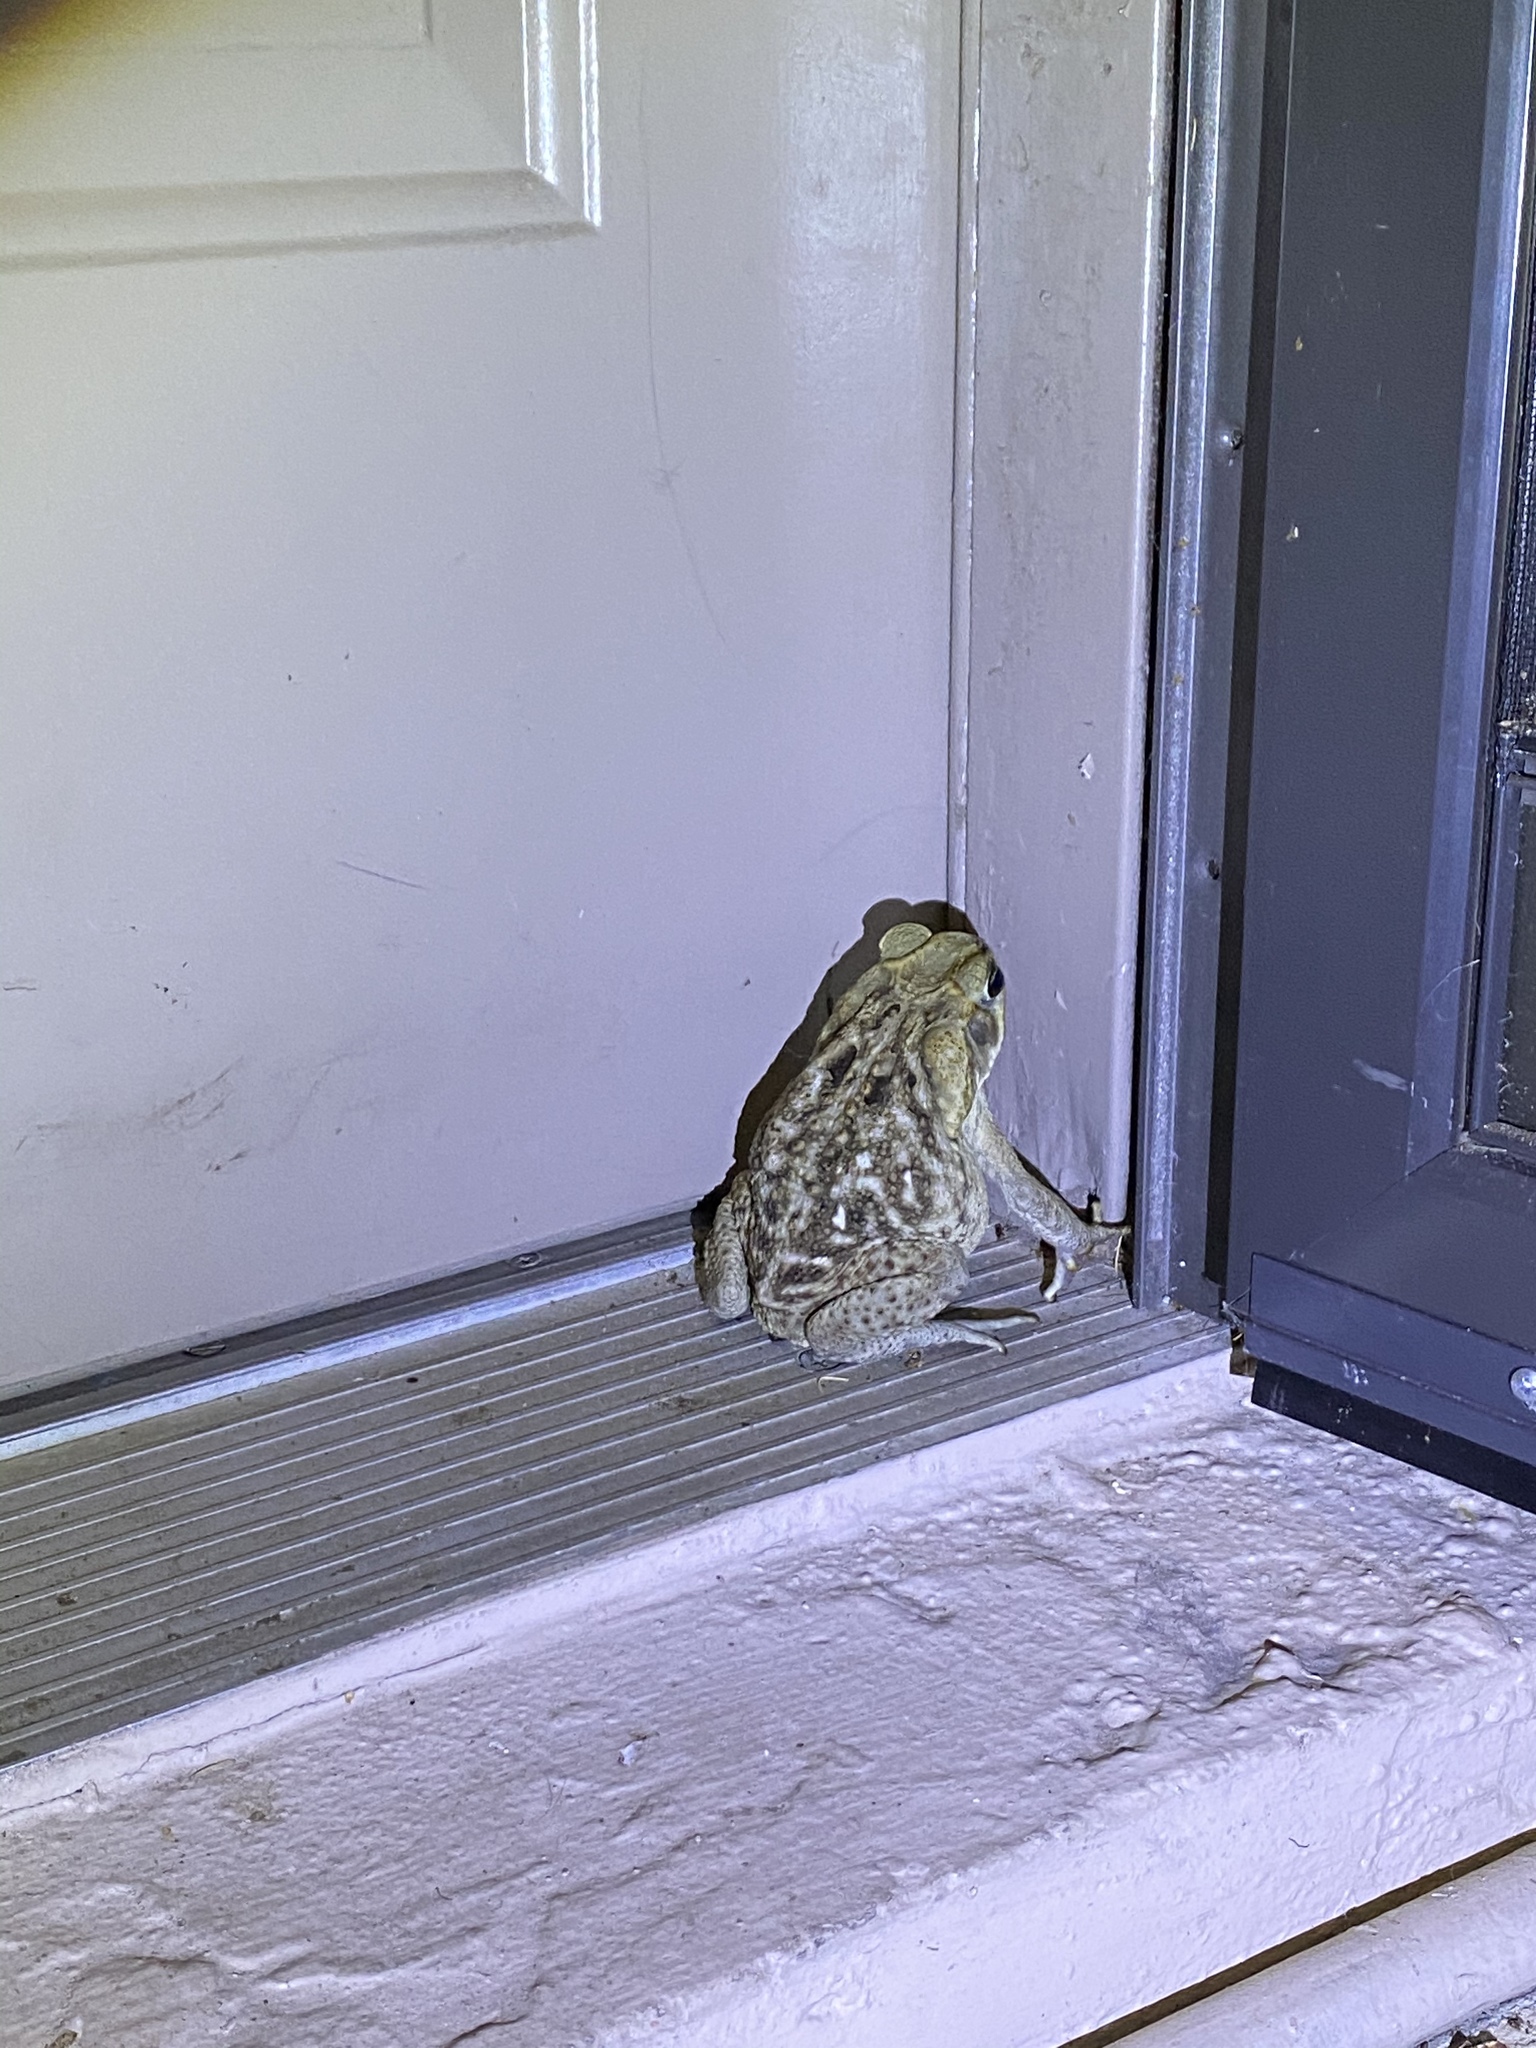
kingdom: Animalia
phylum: Chordata
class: Amphibia
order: Anura
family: Bufonidae
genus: Rhinella
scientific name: Rhinella marina
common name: Cane toad
